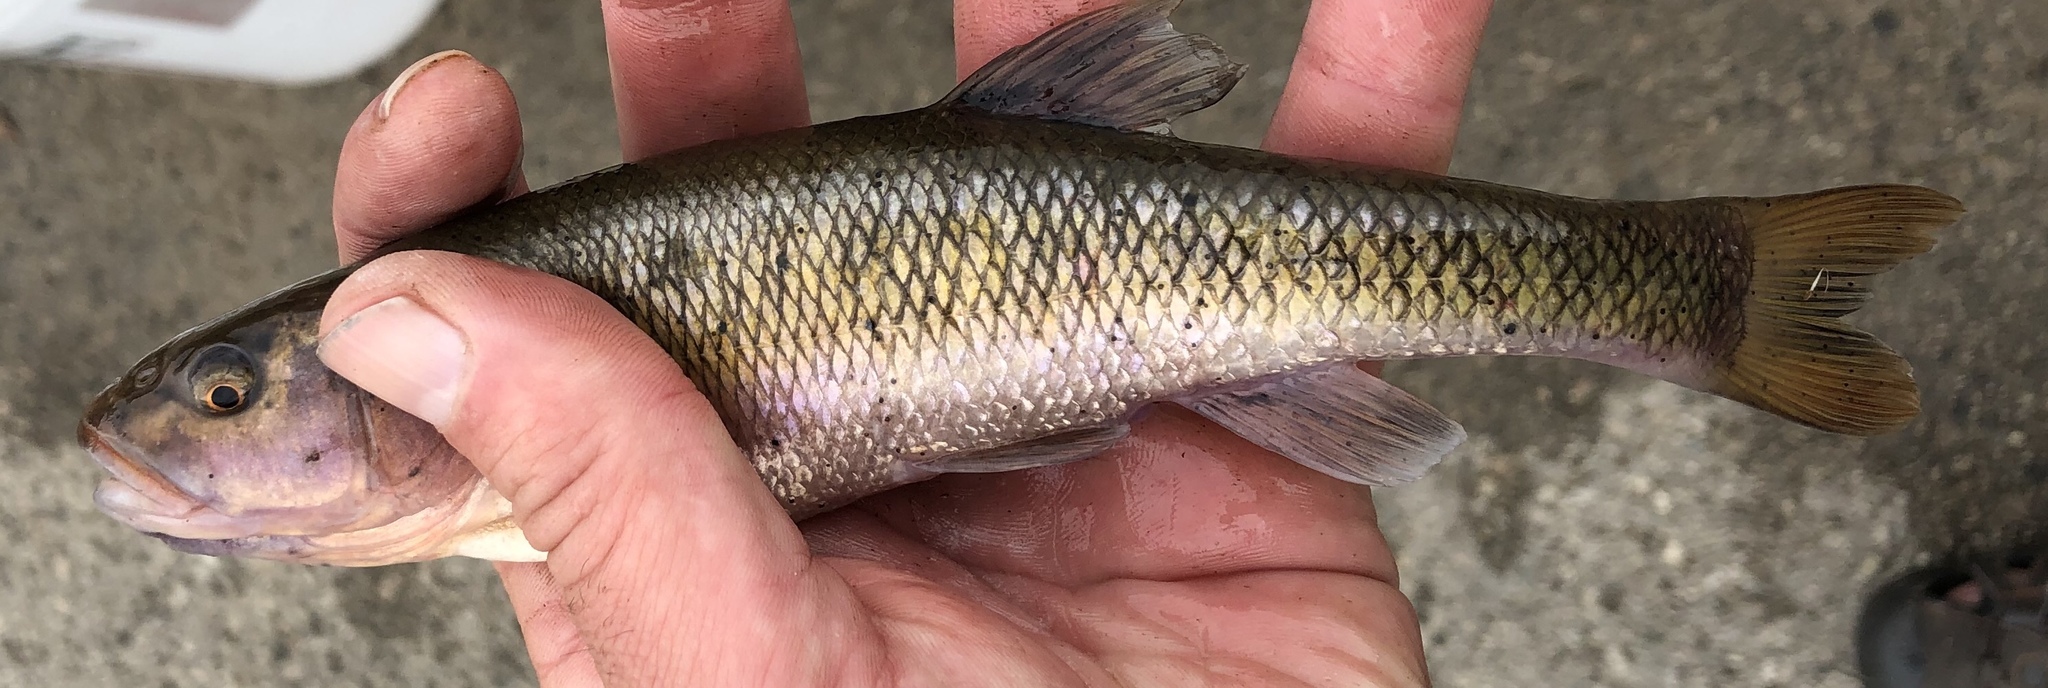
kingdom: Animalia
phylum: Chordata
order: Cypriniformes
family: Cyprinidae
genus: Semotilus
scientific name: Semotilus atromaculatus
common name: Creek chub
